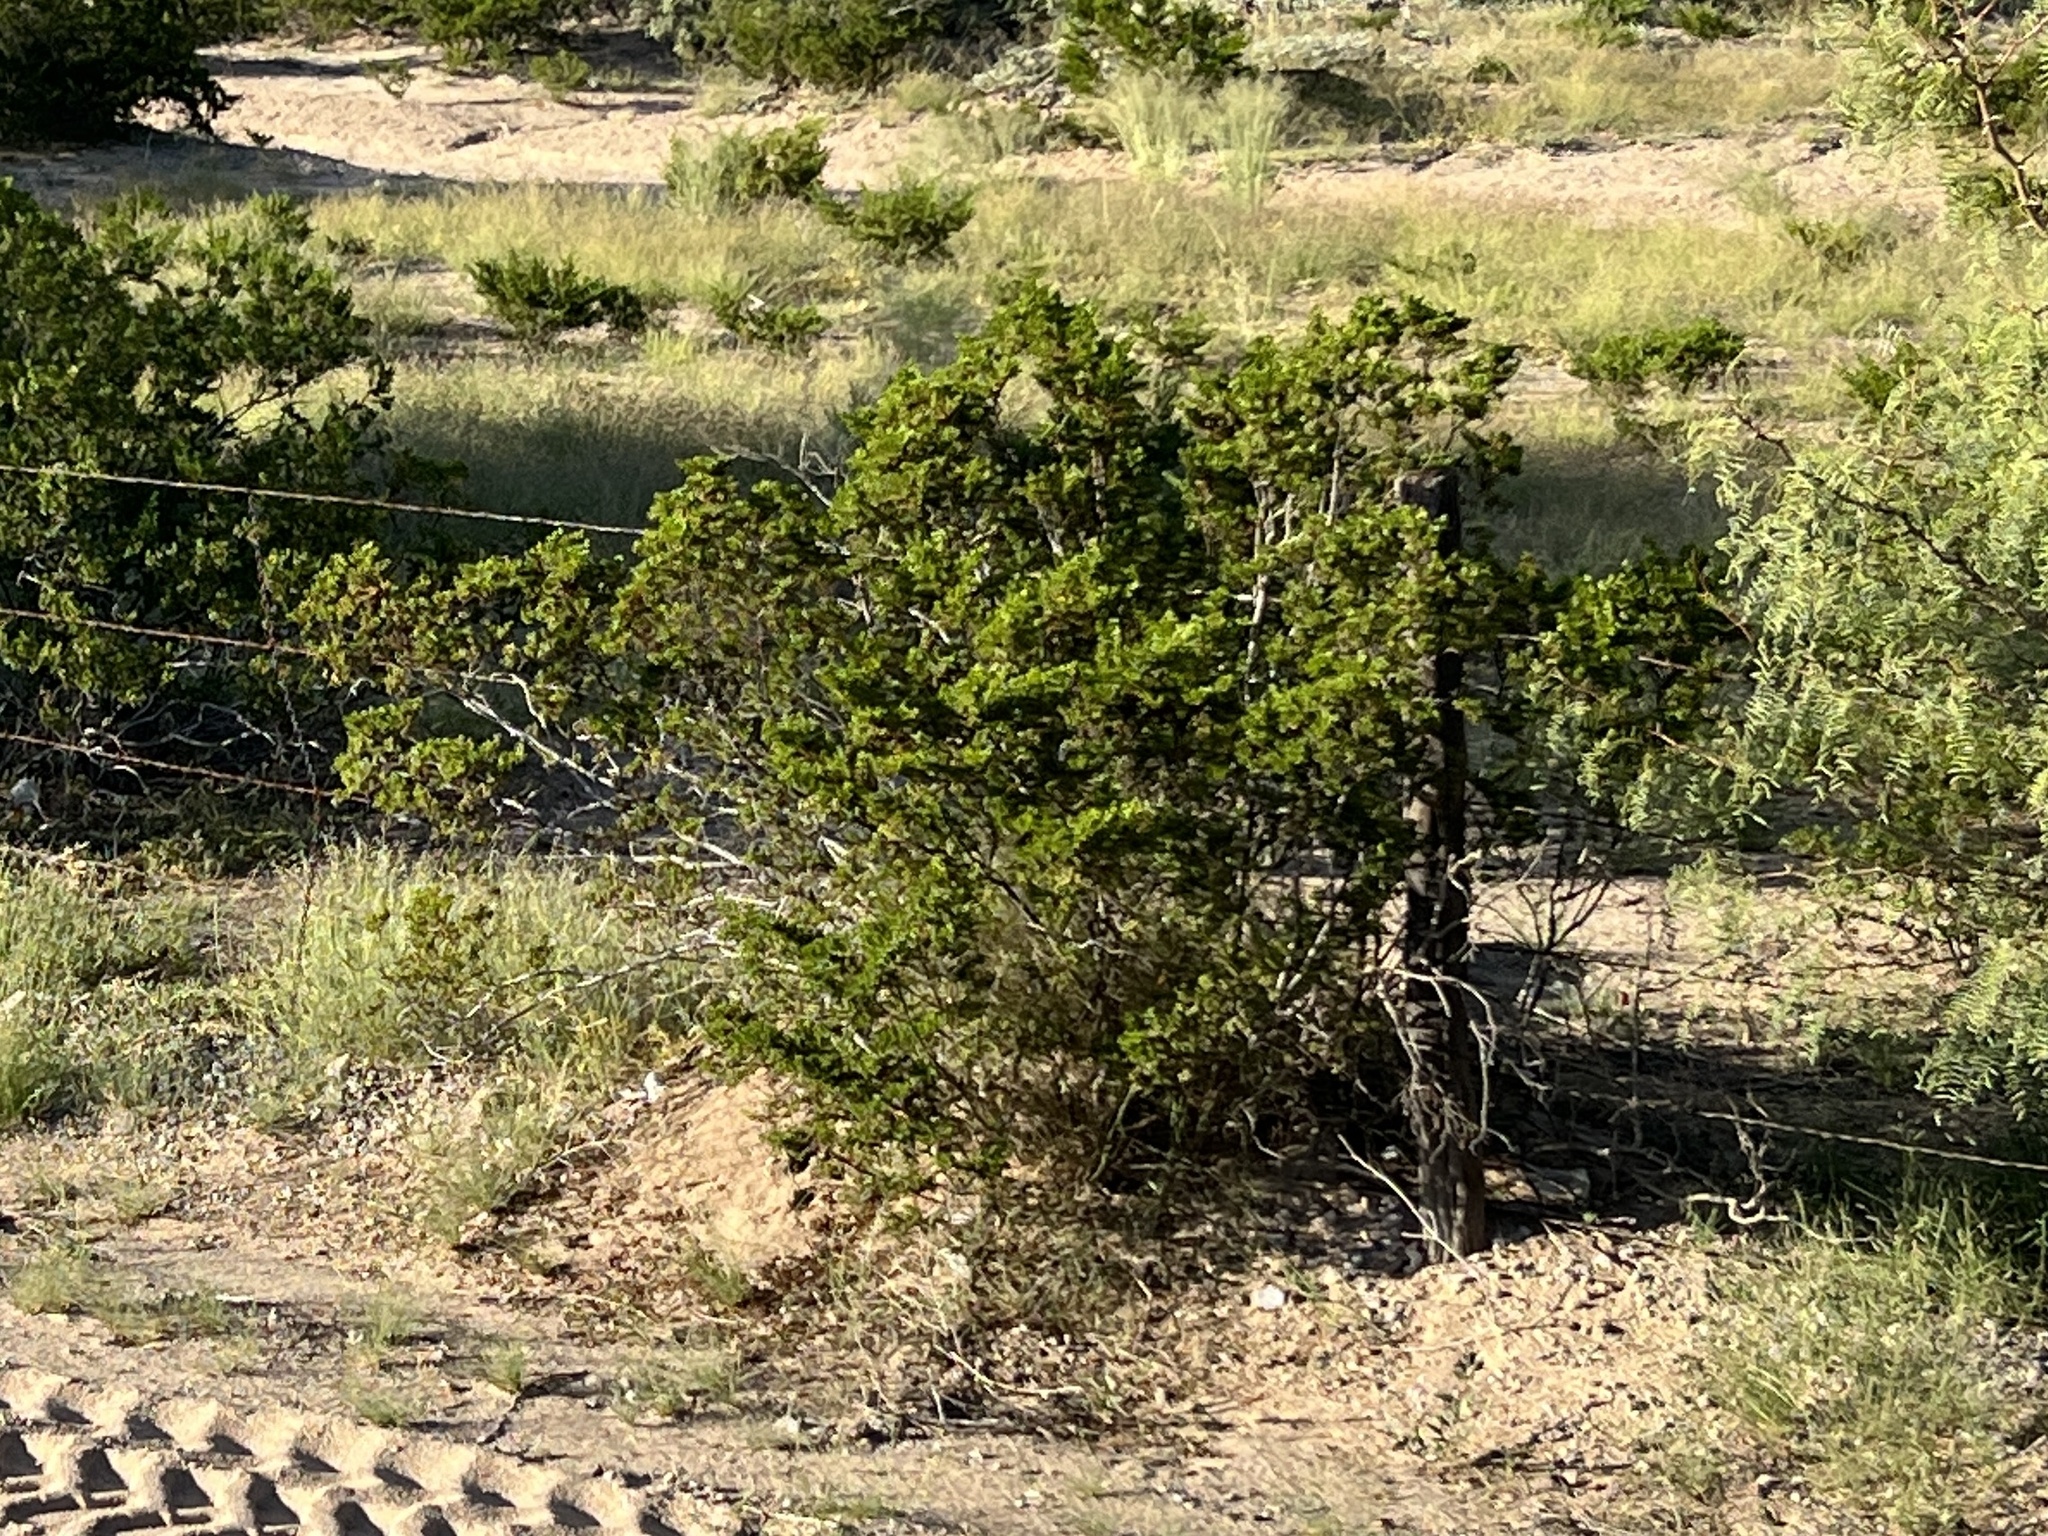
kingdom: Plantae
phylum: Tracheophyta
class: Magnoliopsida
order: Zygophyllales
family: Zygophyllaceae
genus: Larrea
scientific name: Larrea tridentata
